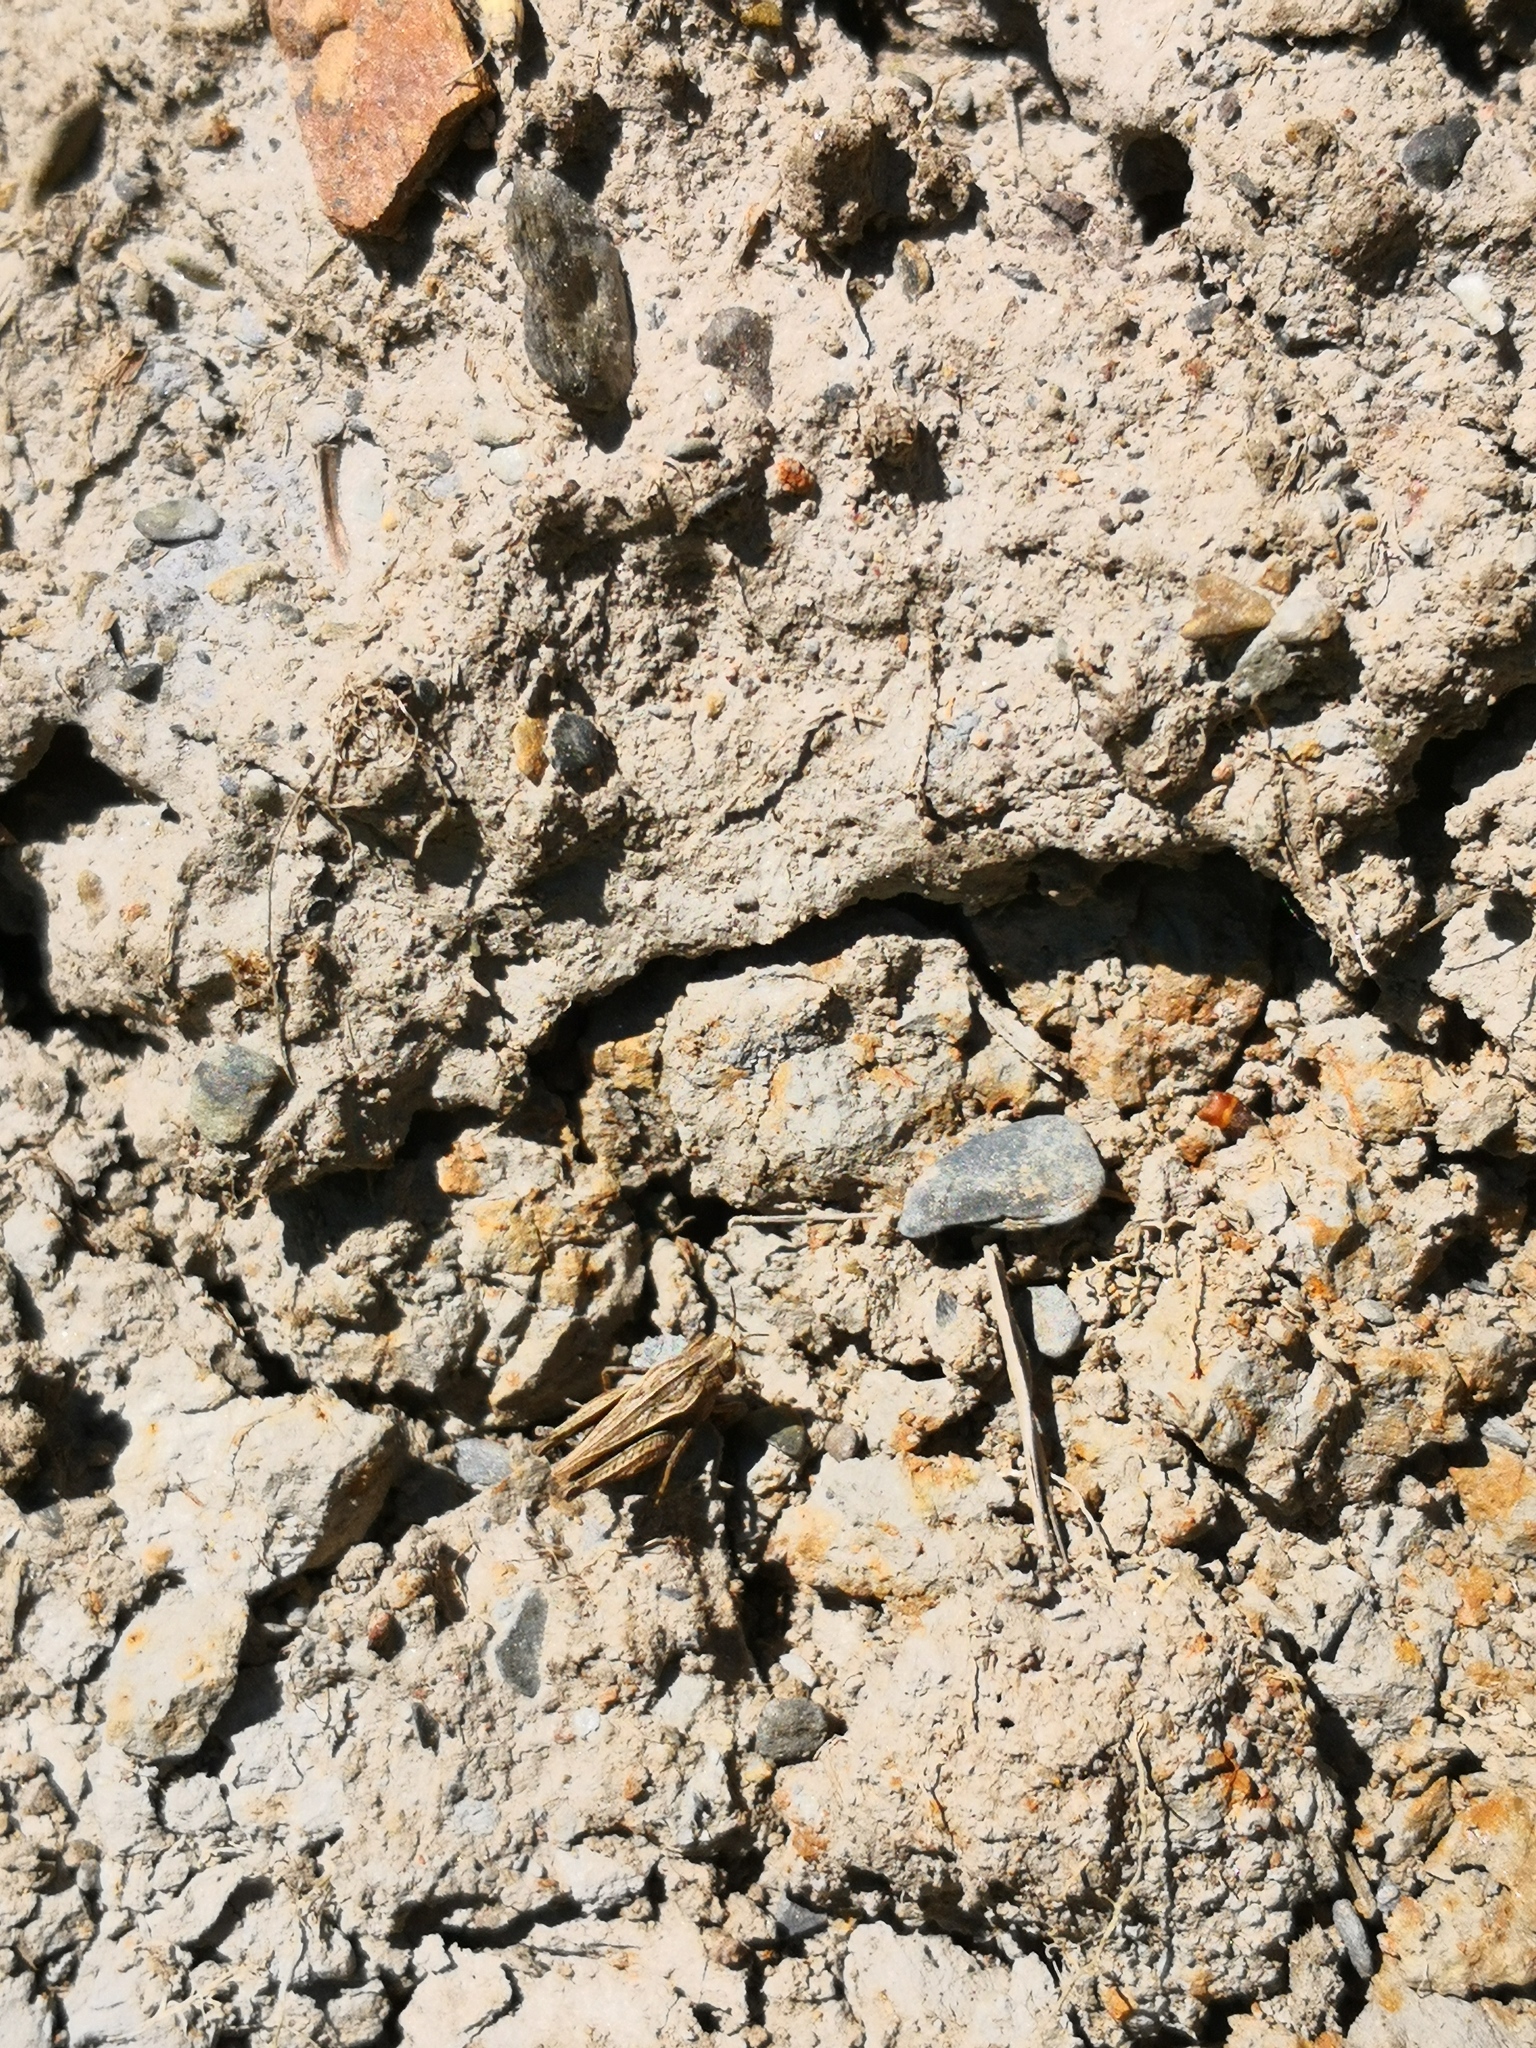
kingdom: Animalia
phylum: Arthropoda
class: Insecta
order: Orthoptera
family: Tetrigidae
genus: Tetrix
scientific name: Tetrix undulata
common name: Common groundhopper
